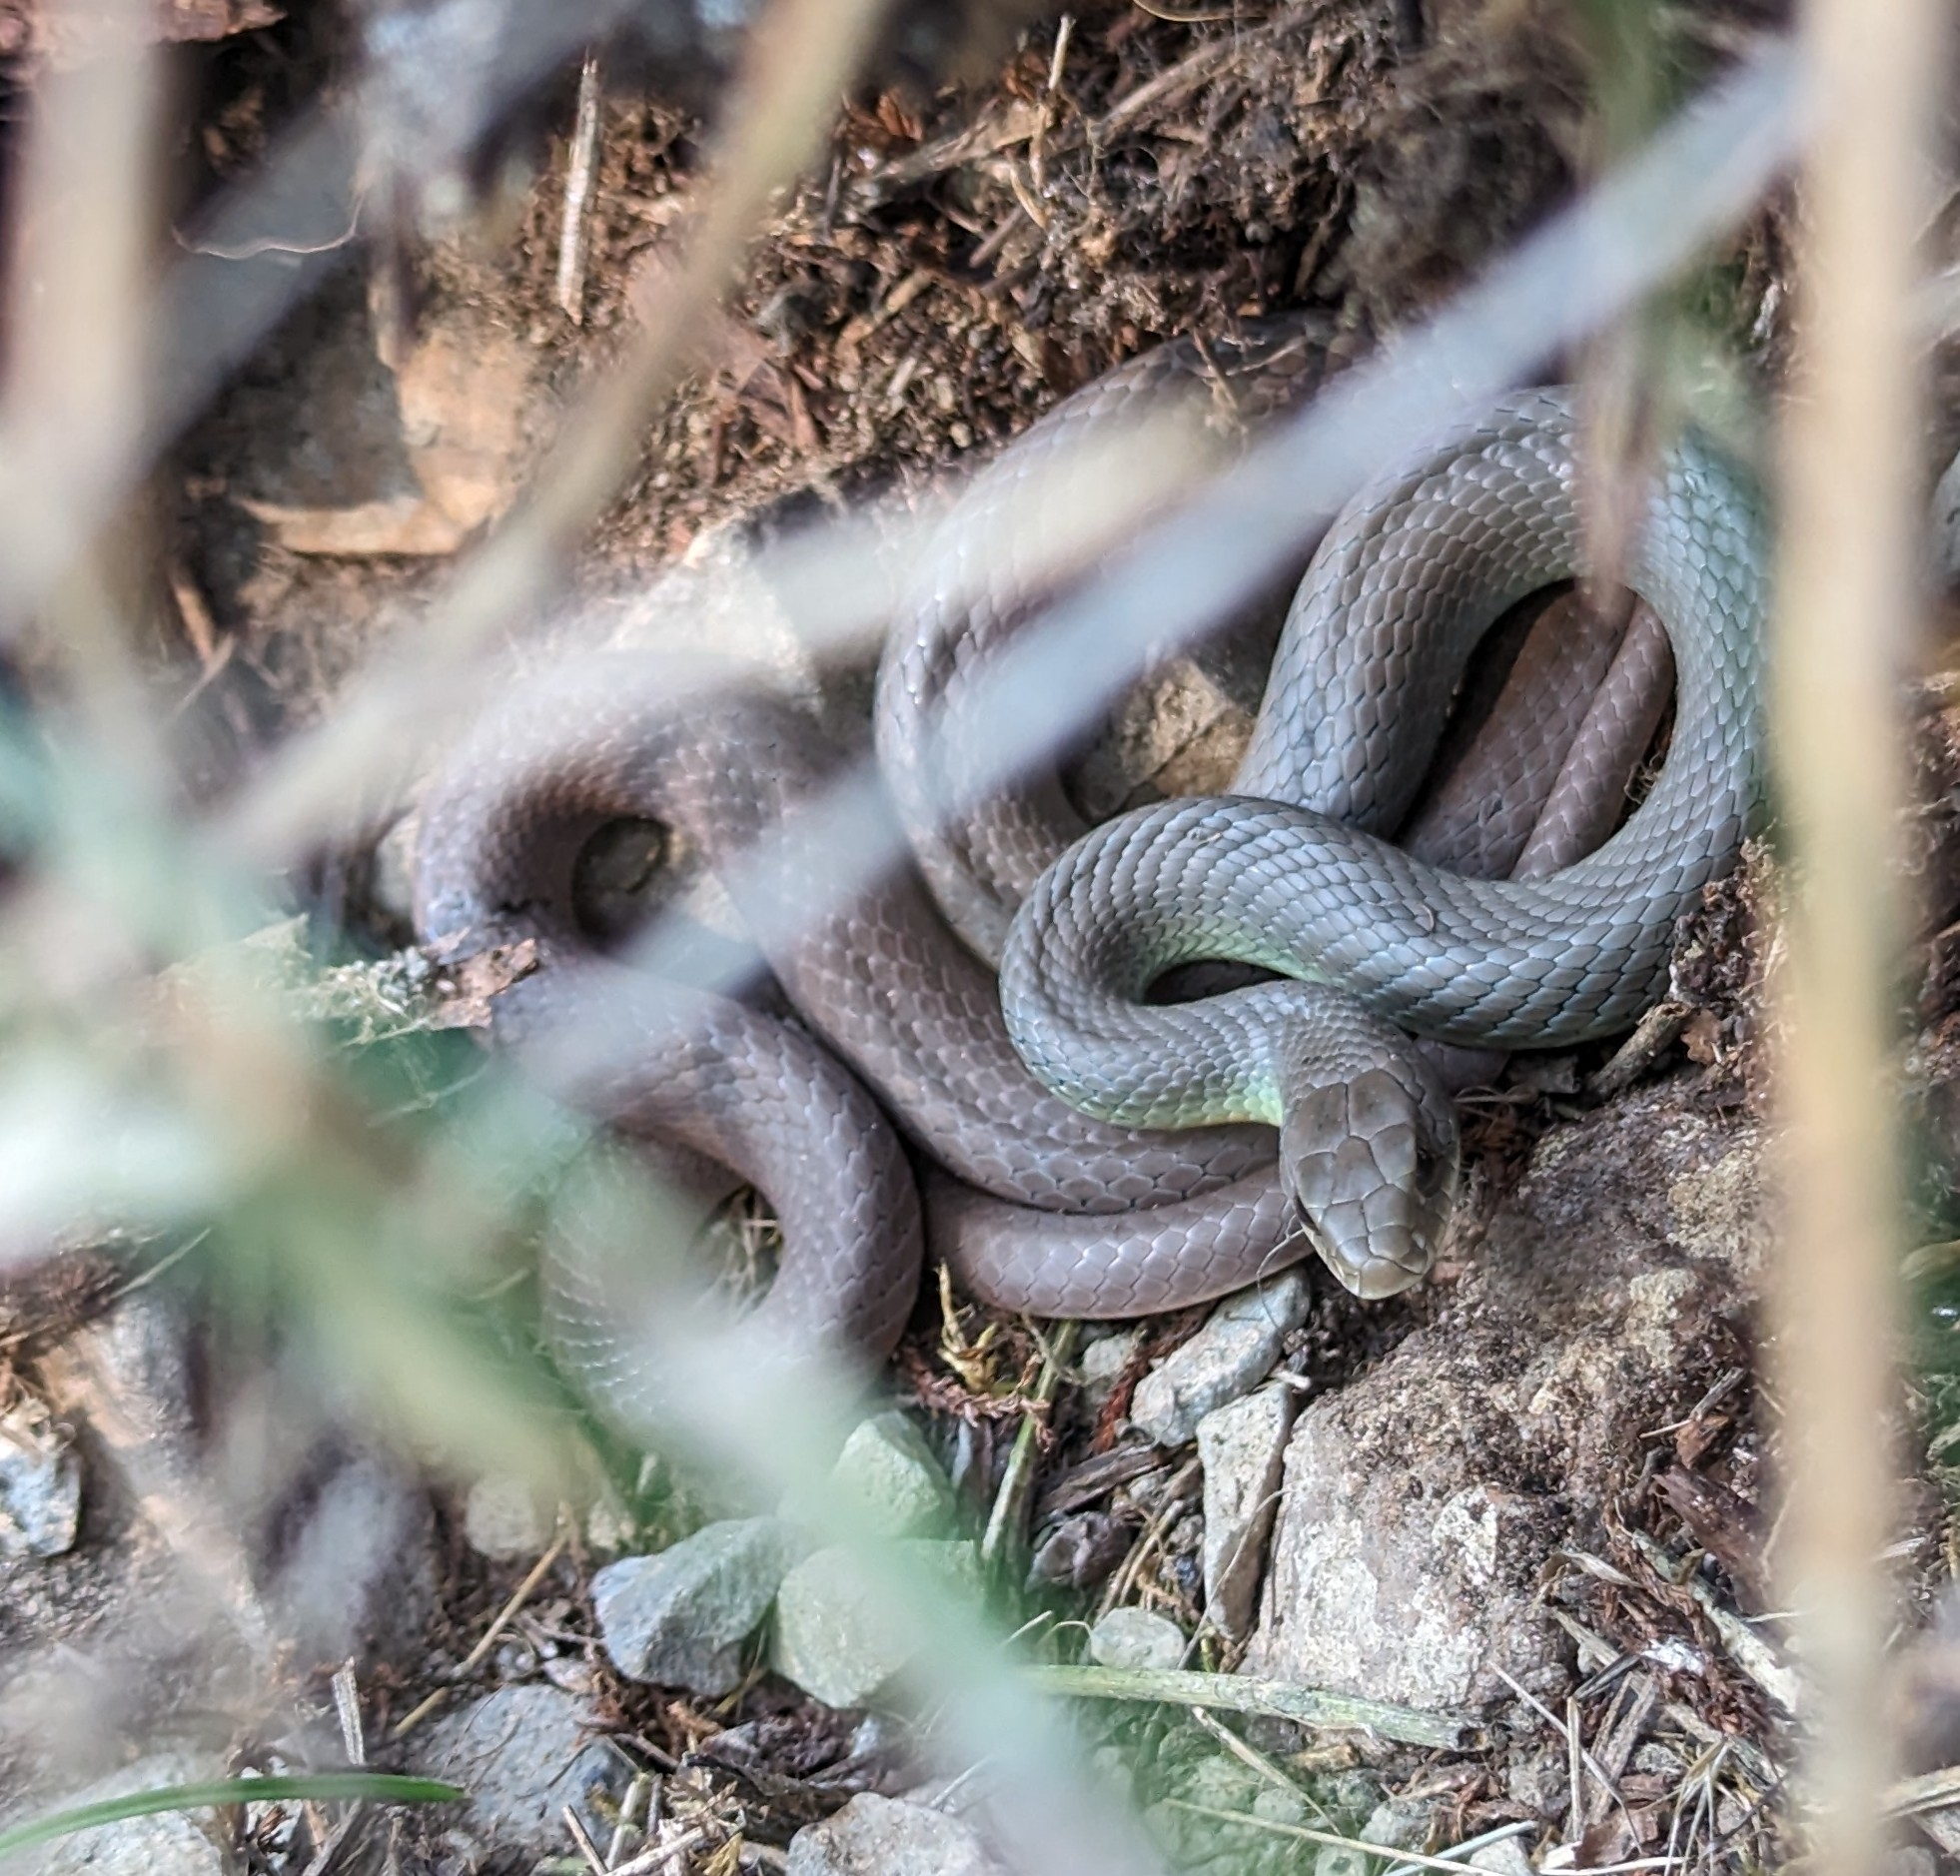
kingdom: Animalia
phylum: Chordata
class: Squamata
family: Colubridae
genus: Coluber
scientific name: Coluber constrictor
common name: Eastern racer
